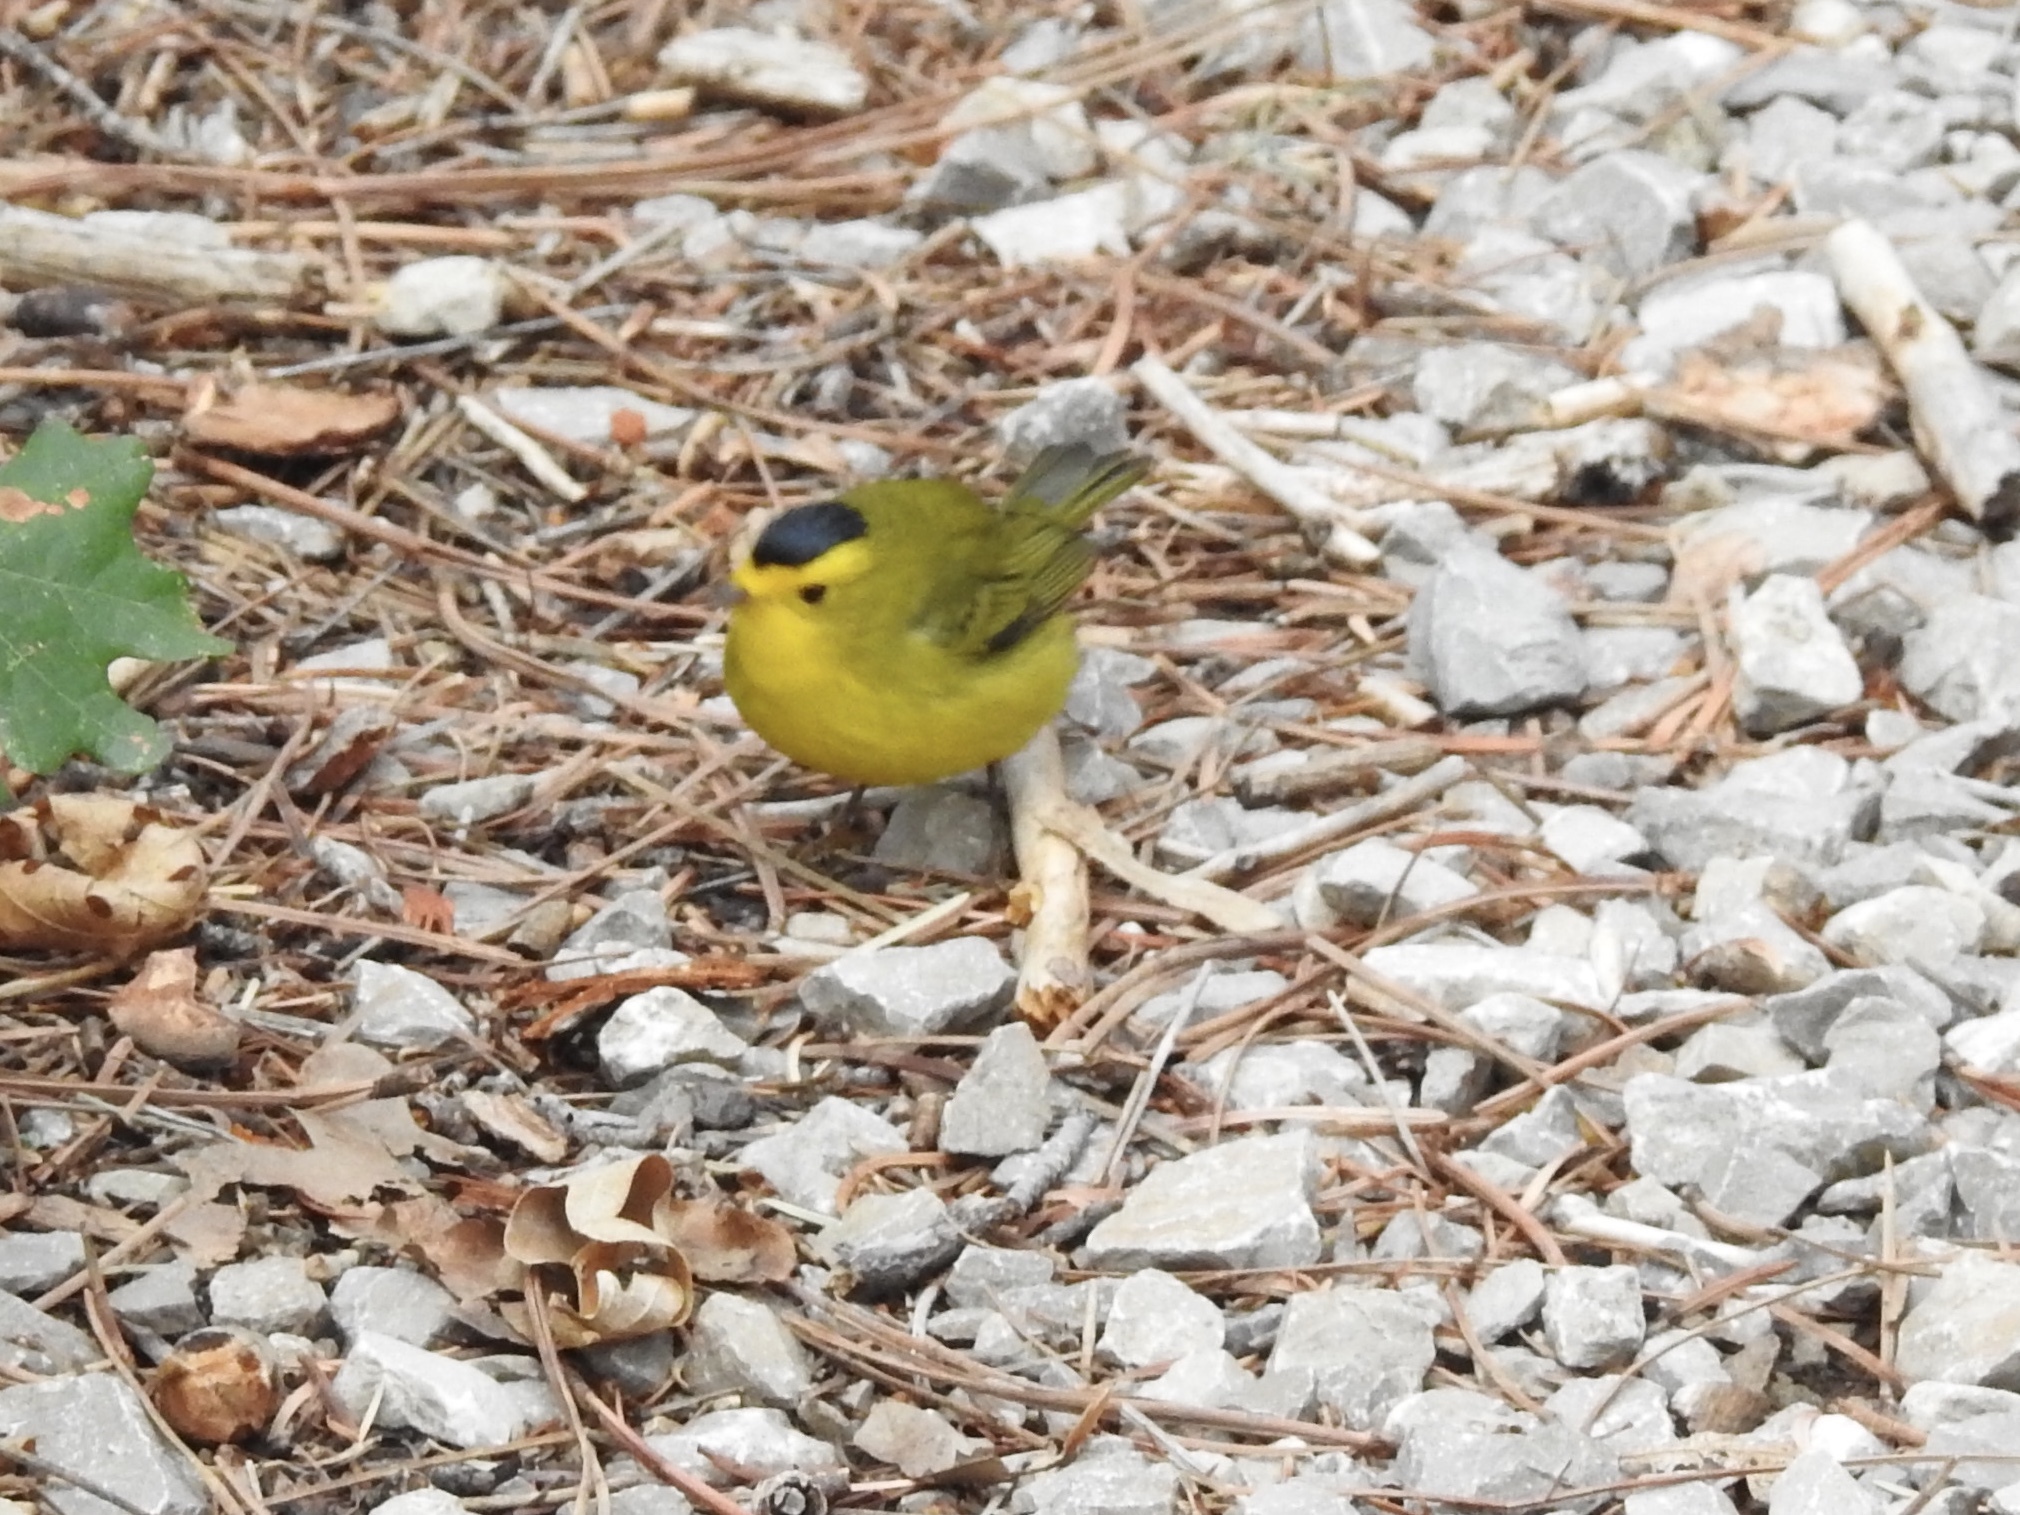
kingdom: Animalia
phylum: Chordata
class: Aves
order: Passeriformes
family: Parulidae
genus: Cardellina
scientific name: Cardellina pusilla
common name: Wilson's warbler
